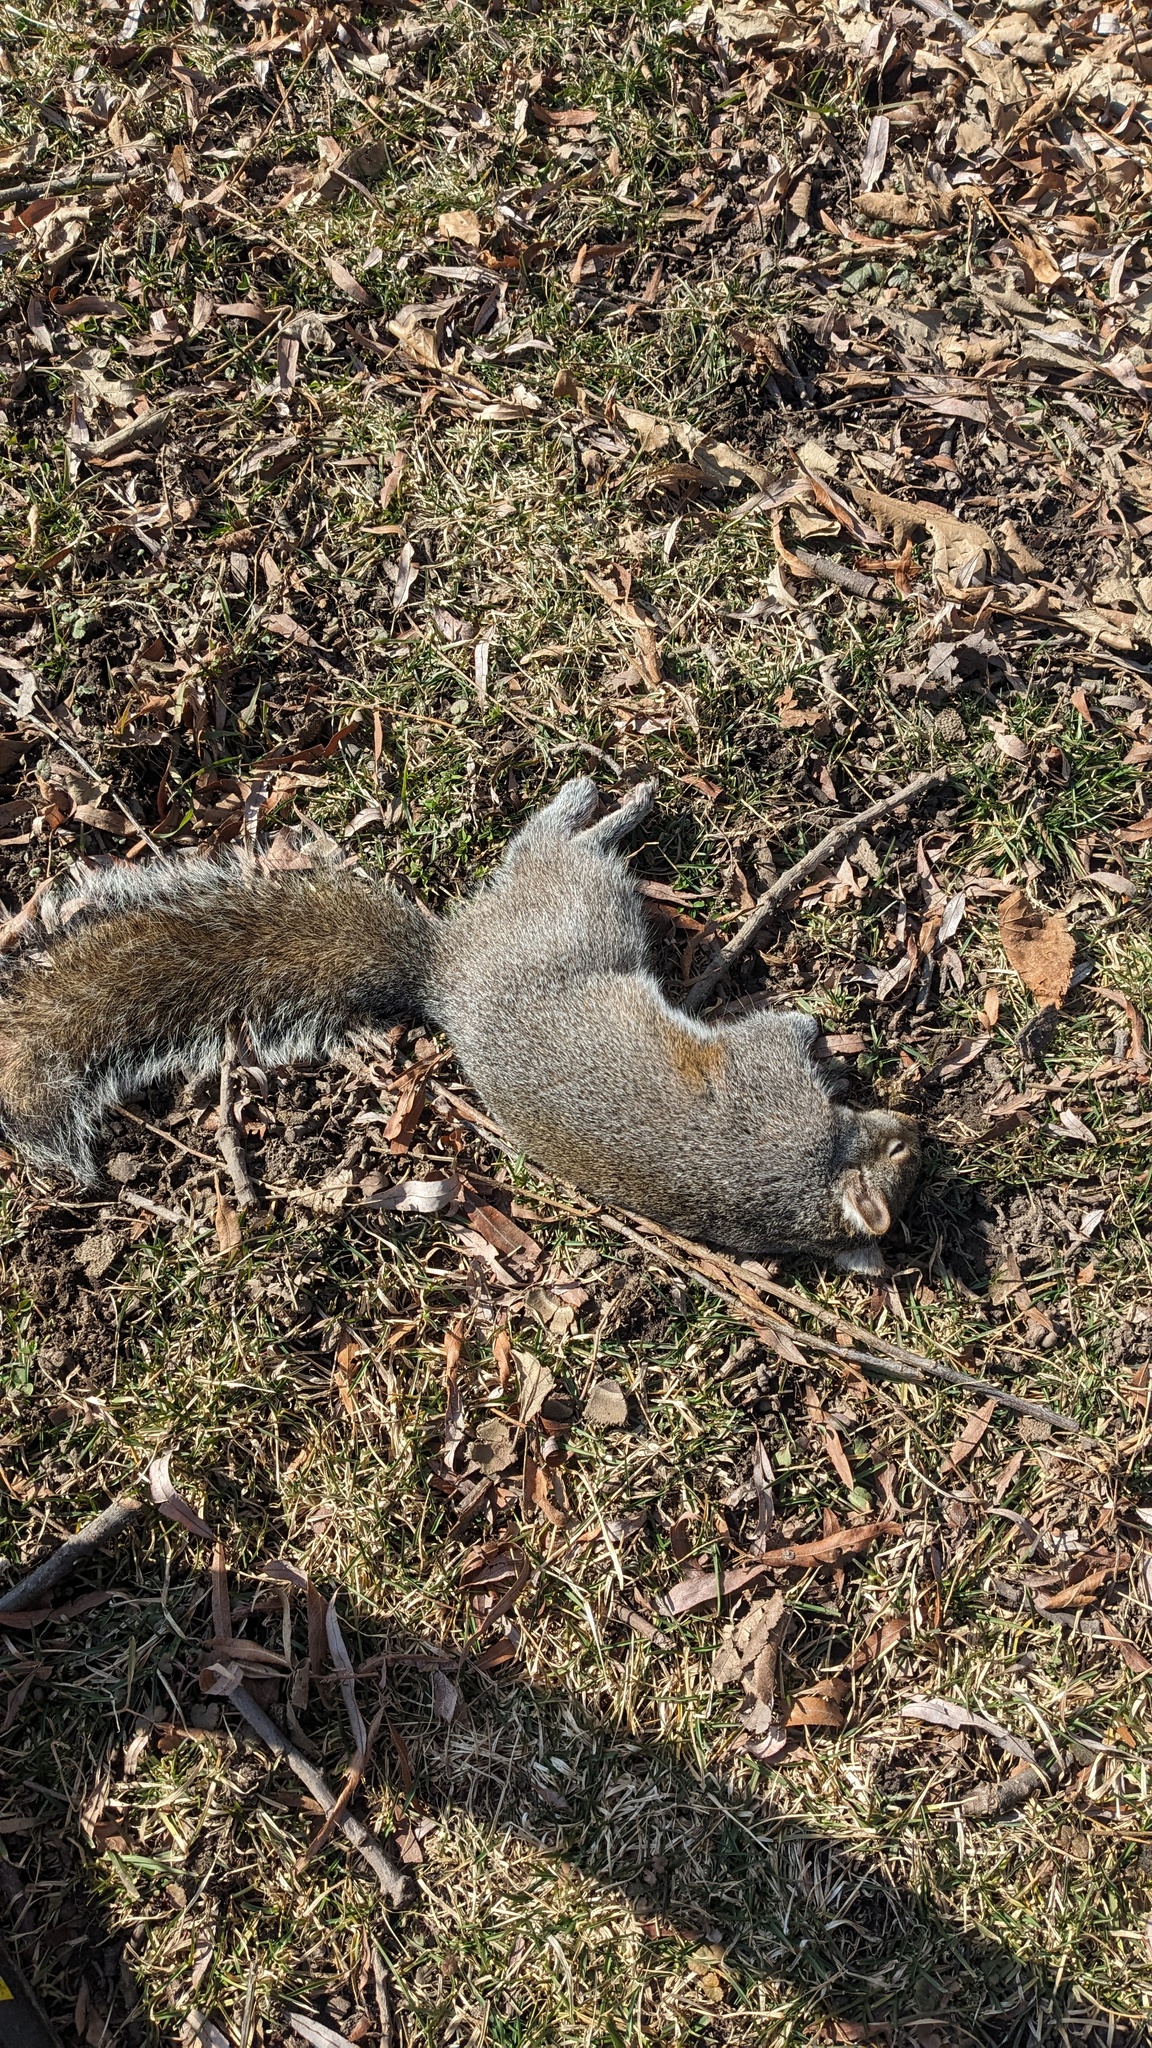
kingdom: Animalia
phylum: Chordata
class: Mammalia
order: Rodentia
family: Sciuridae
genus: Sciurus
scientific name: Sciurus carolinensis
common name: Eastern gray squirrel
